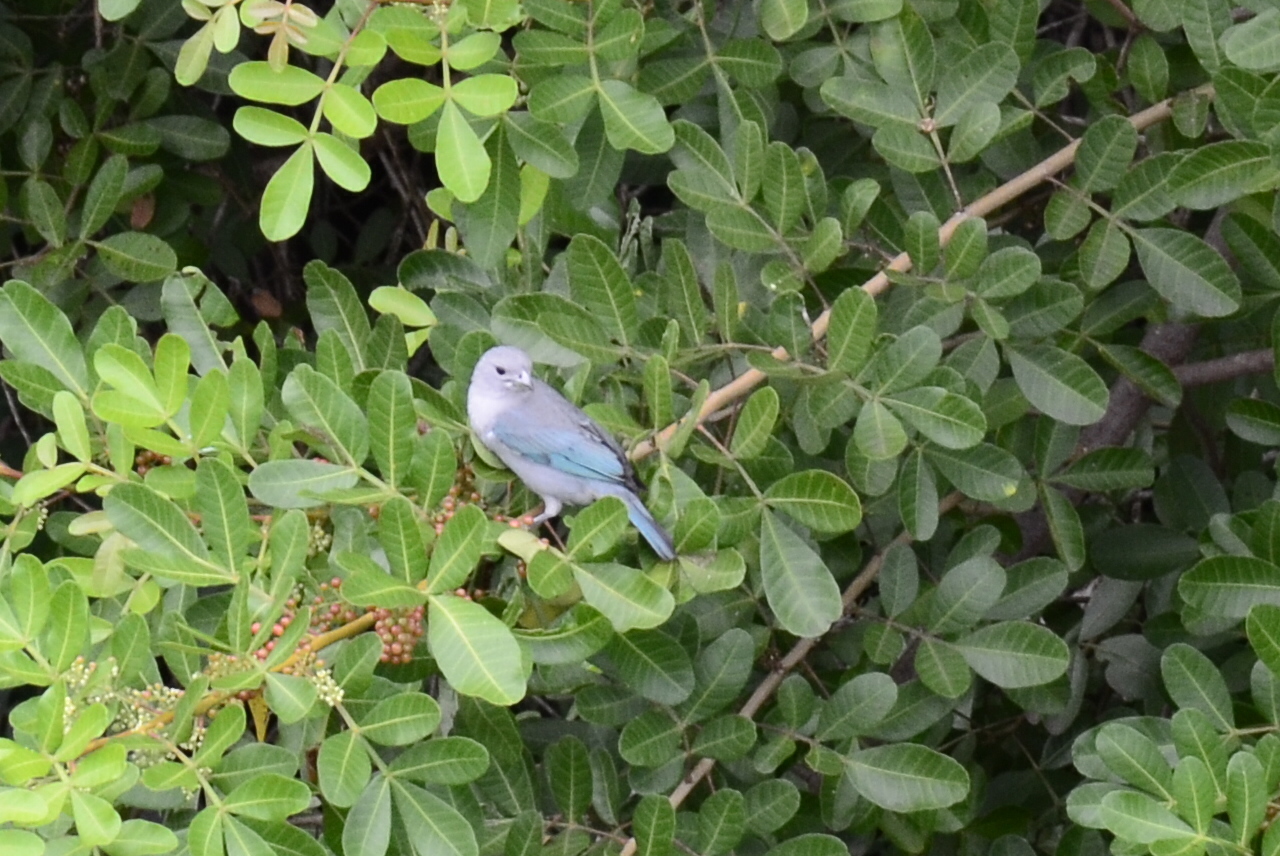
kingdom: Animalia
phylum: Chordata
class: Aves
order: Passeriformes
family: Thraupidae
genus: Thraupis
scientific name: Thraupis sayaca
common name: Sayaca tanager
